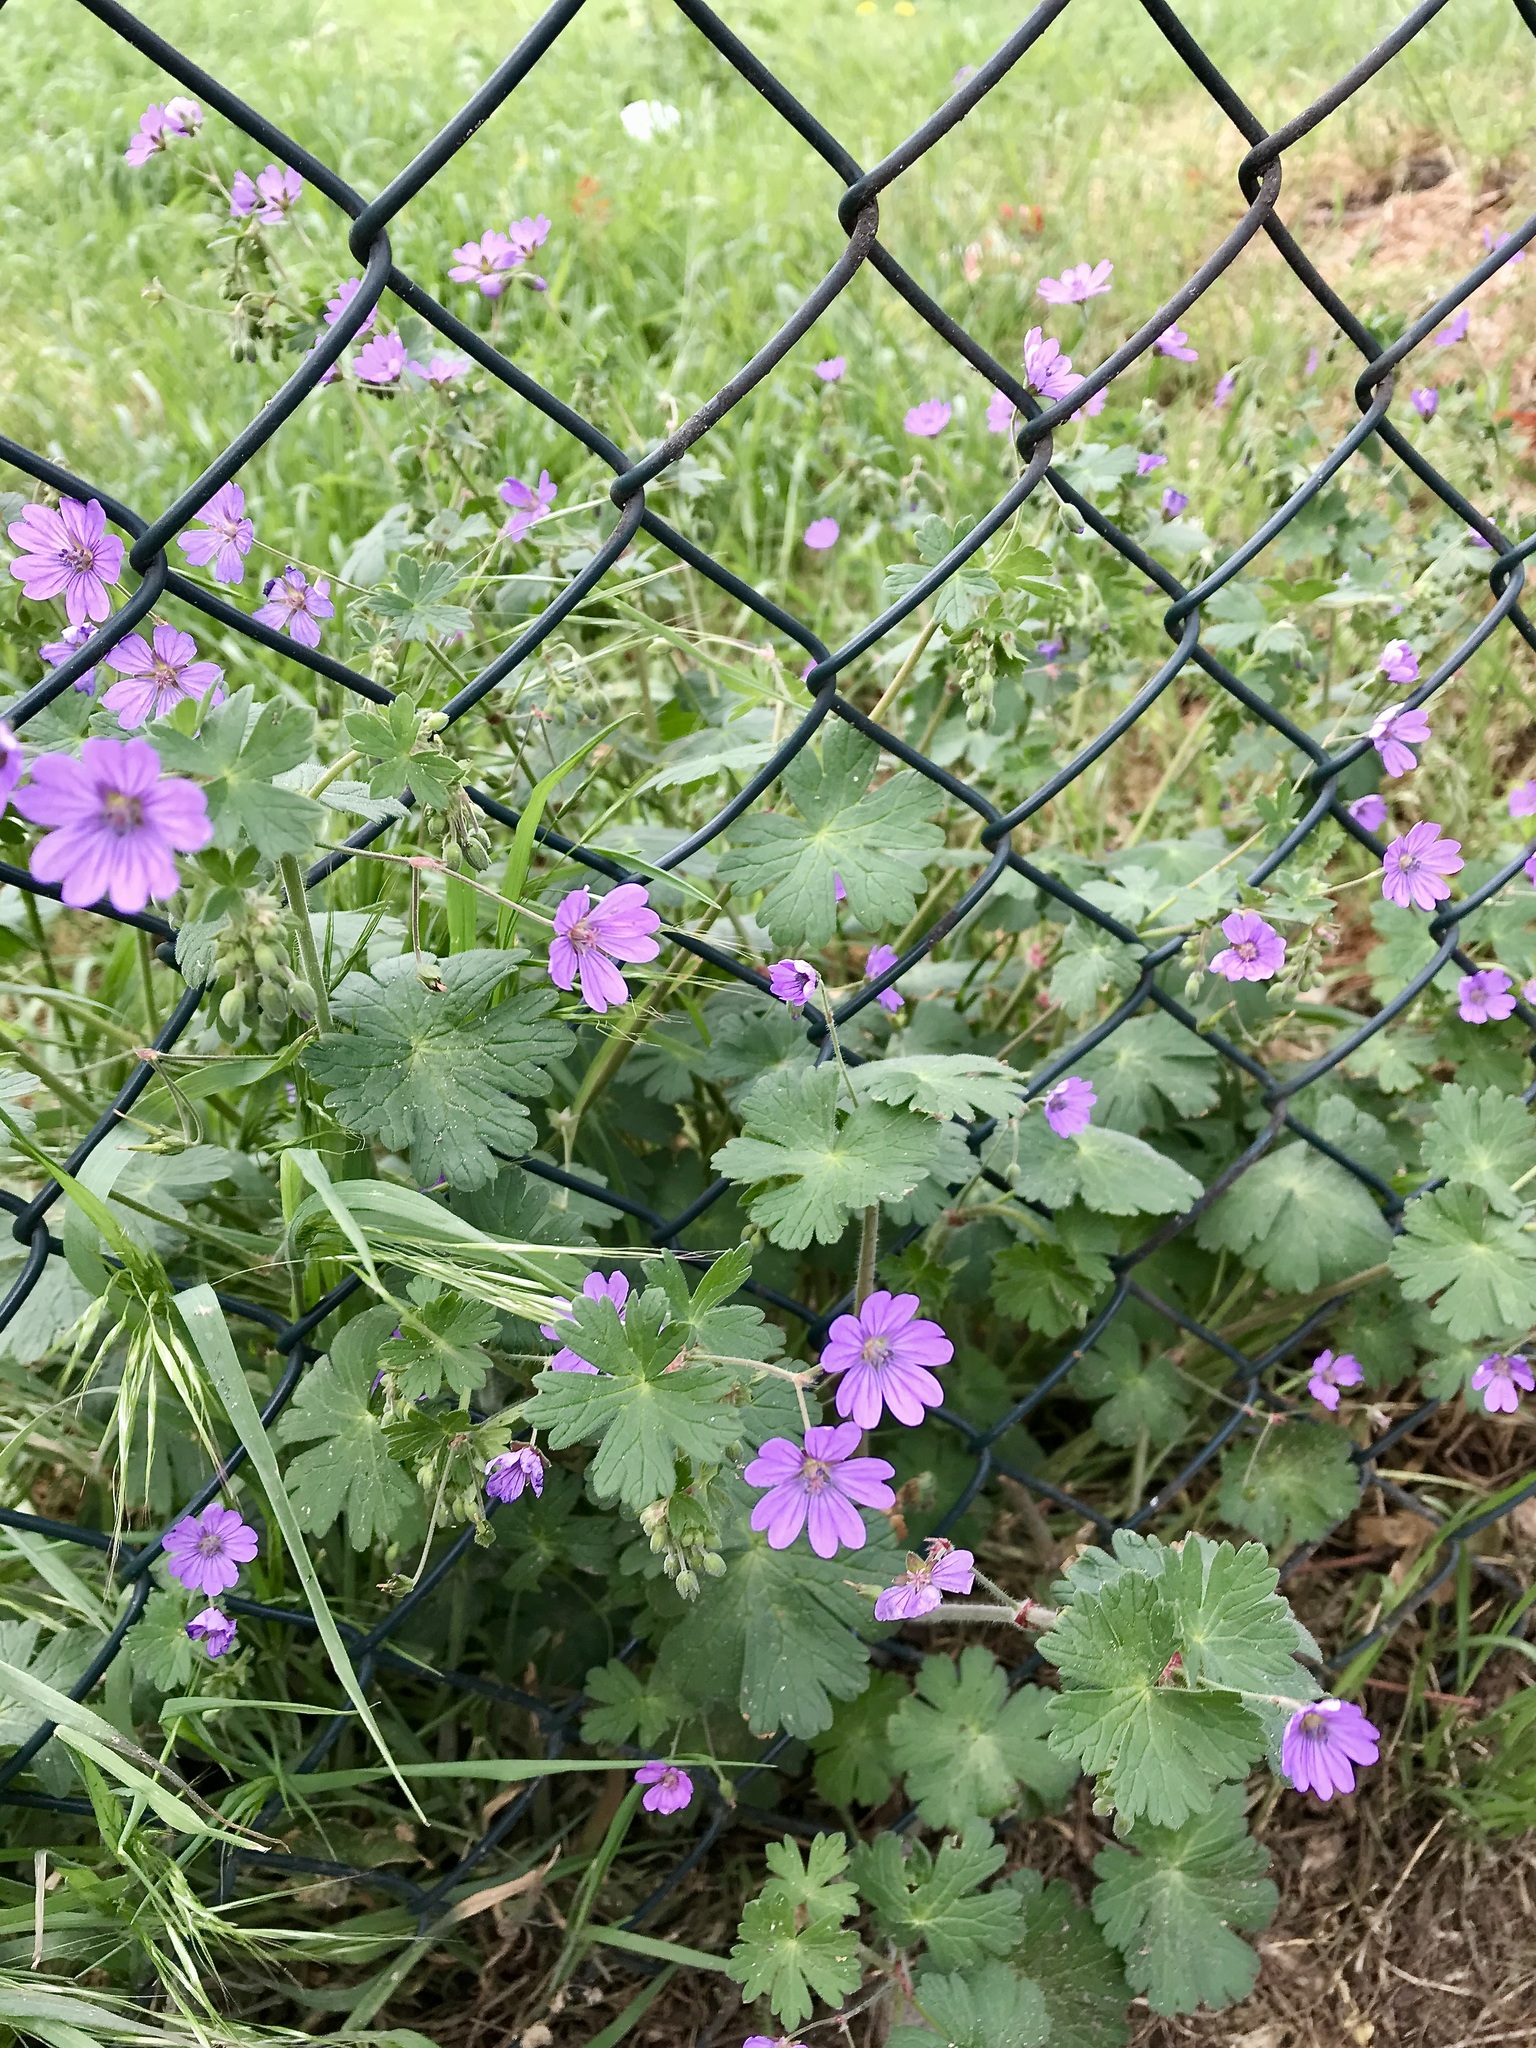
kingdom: Plantae
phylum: Tracheophyta
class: Magnoliopsida
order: Geraniales
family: Geraniaceae
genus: Geranium
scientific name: Geranium pyrenaicum
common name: Hedgerow crane's-bill
